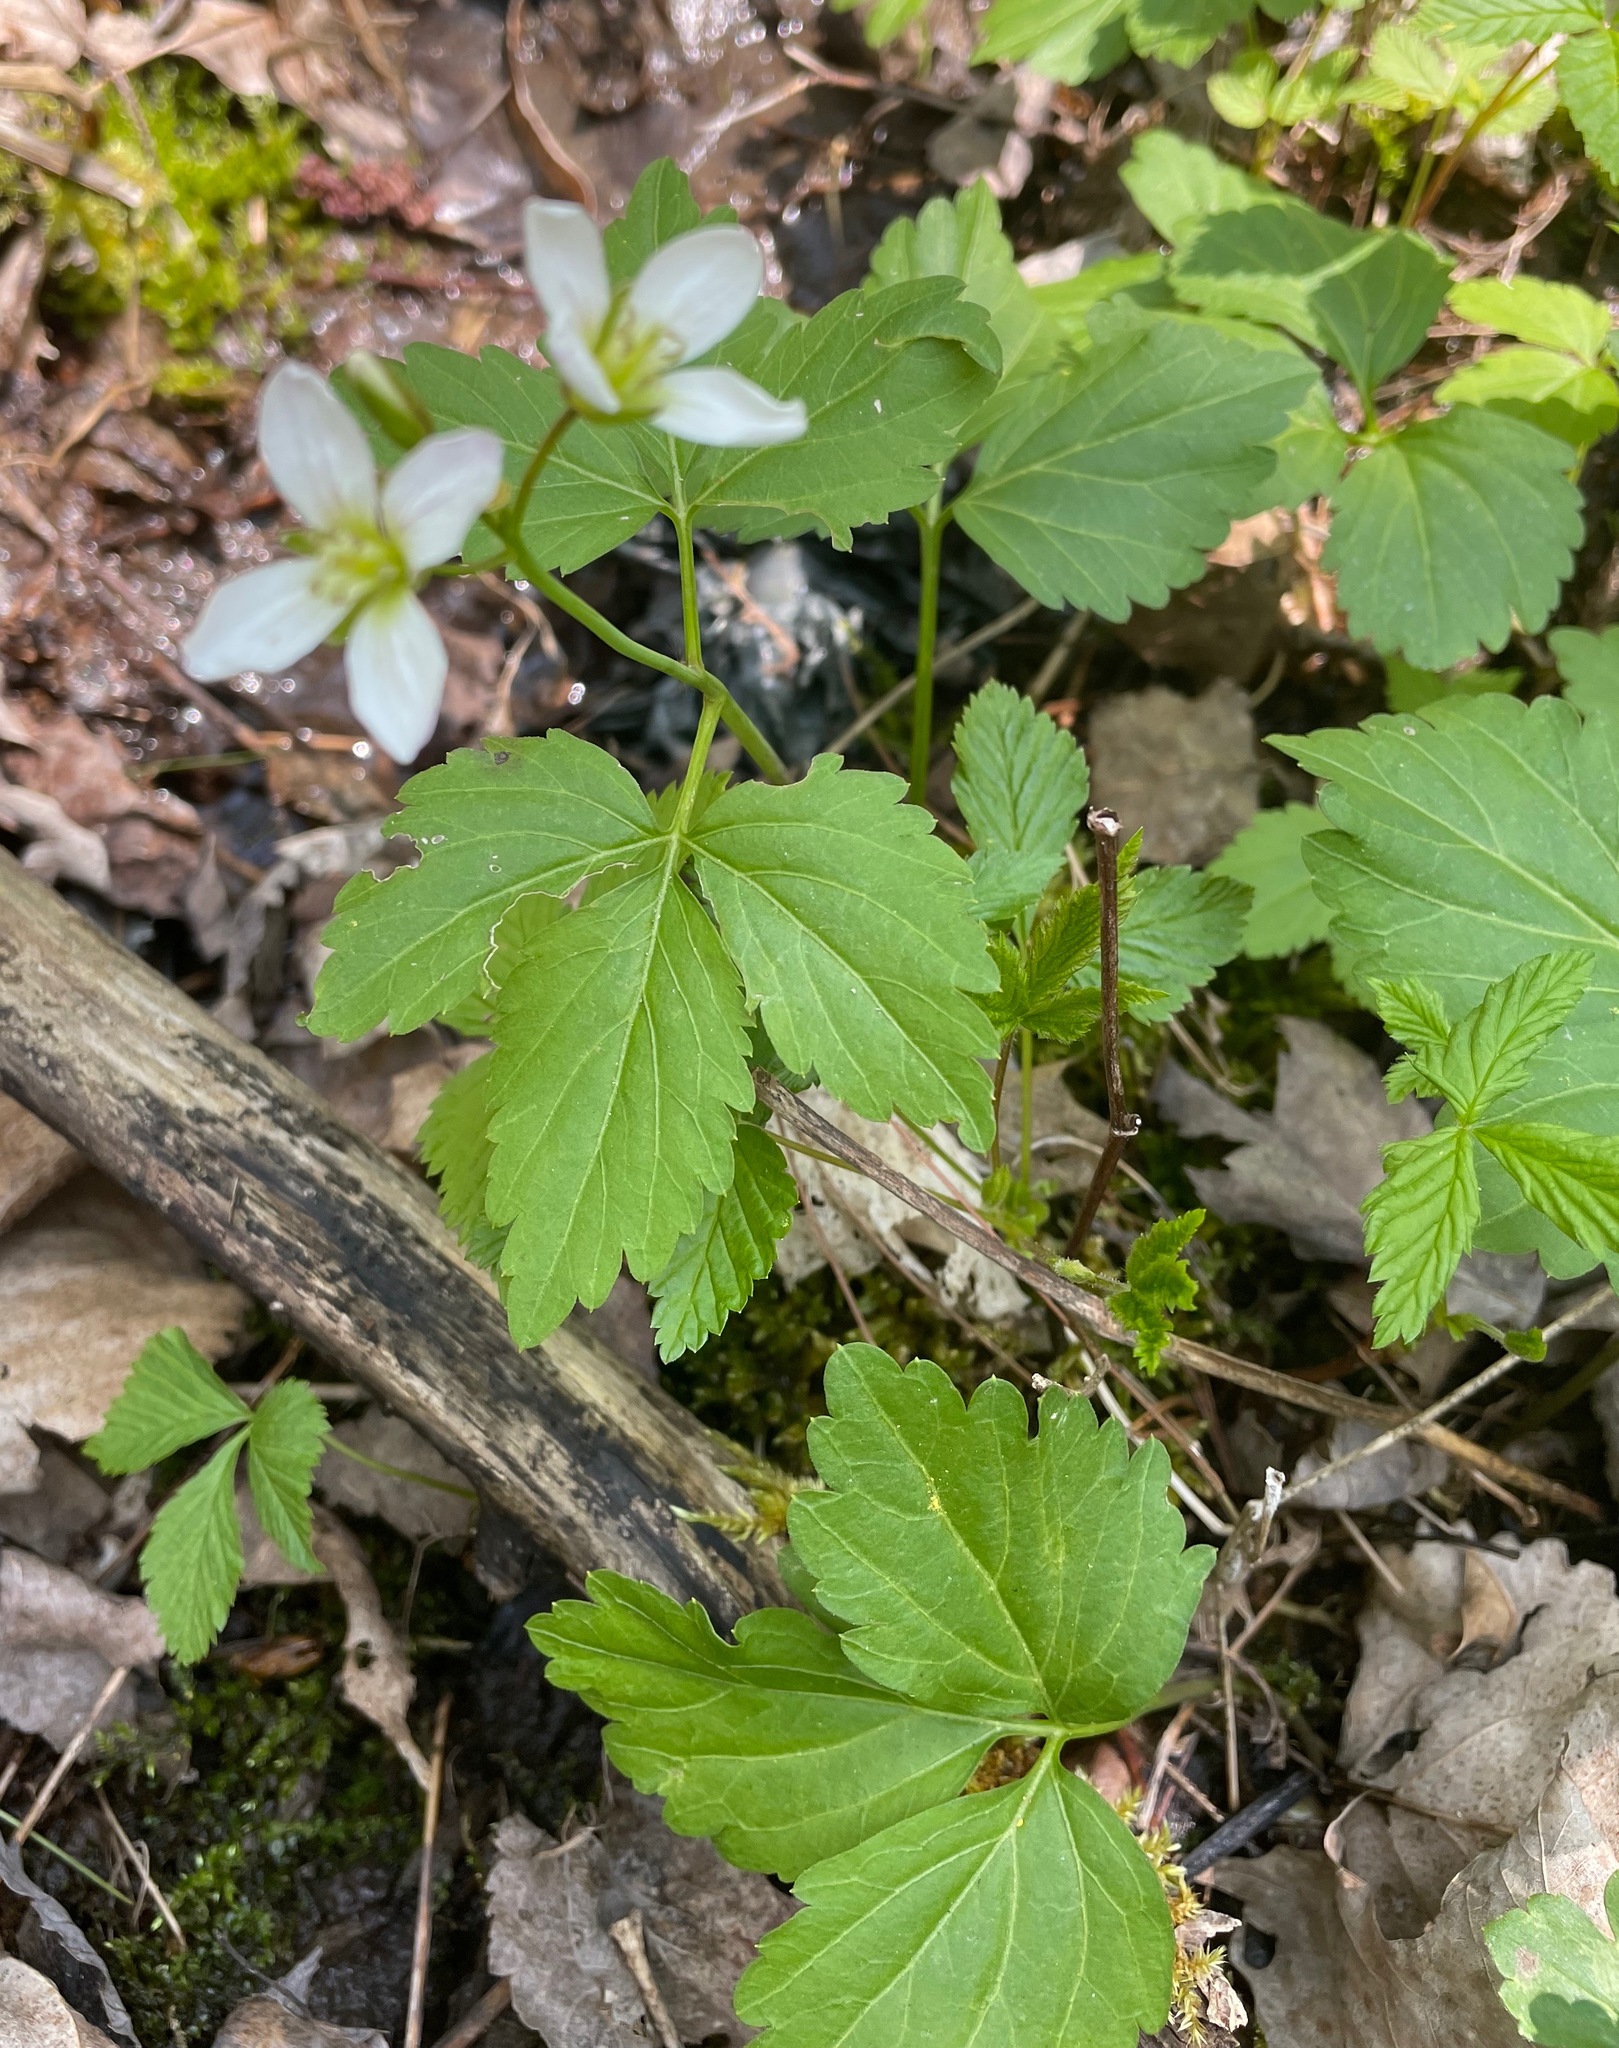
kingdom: Plantae
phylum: Tracheophyta
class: Magnoliopsida
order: Brassicales
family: Brassicaceae
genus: Cardamine
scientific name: Cardamine diphylla
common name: Broad-leaved toothwort
